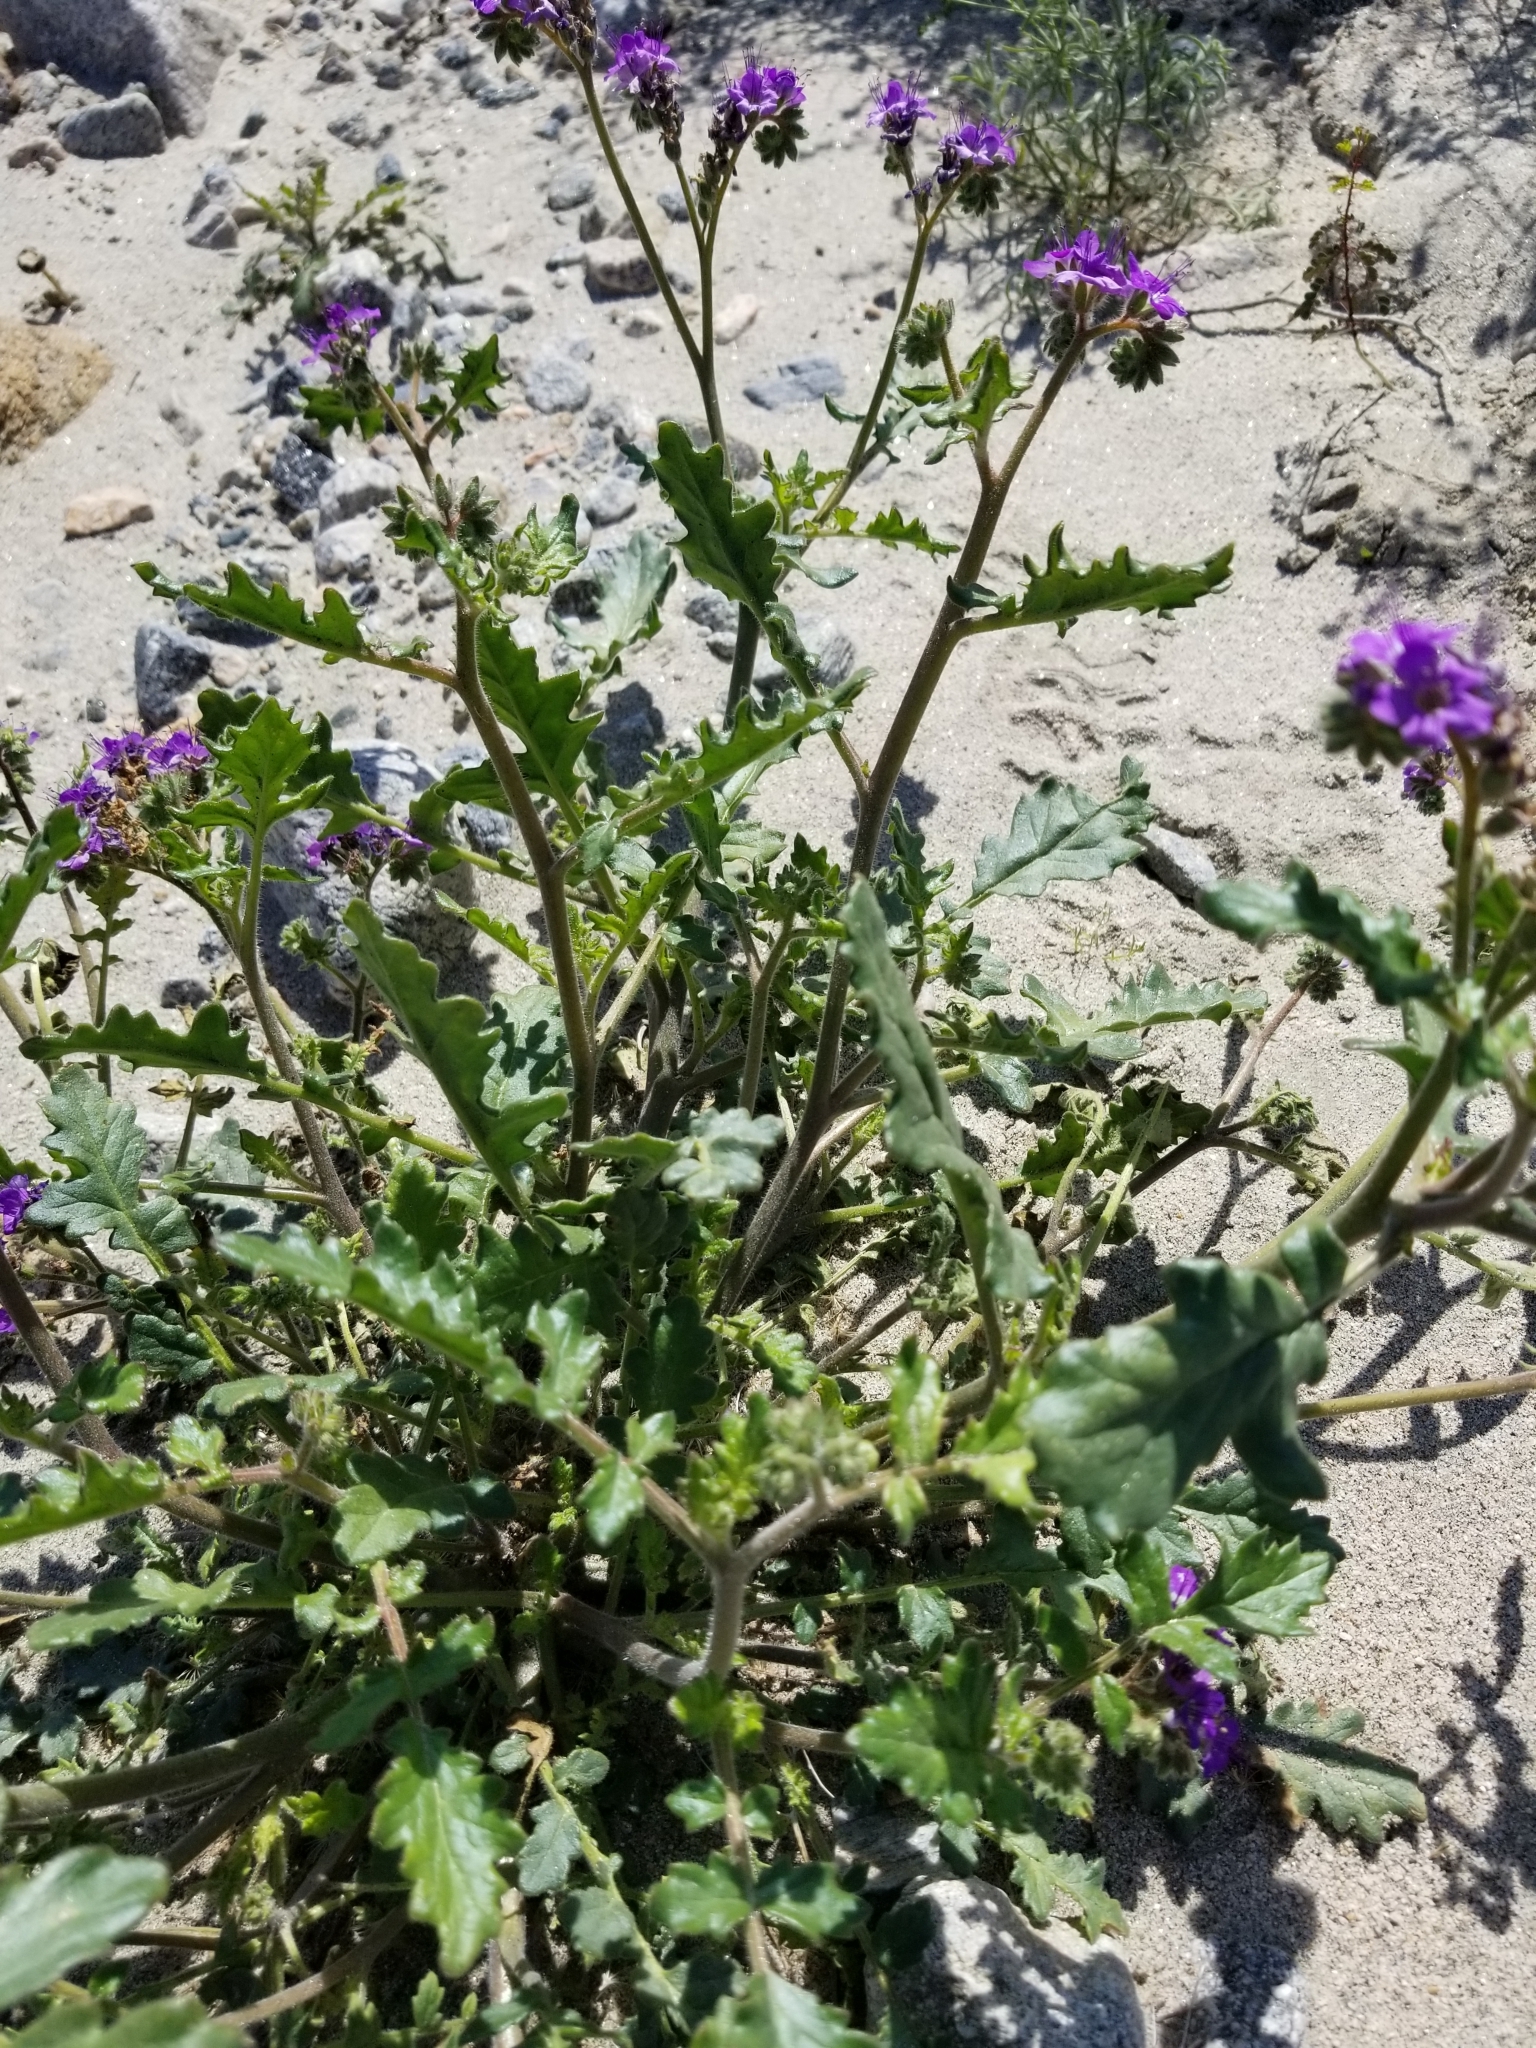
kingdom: Plantae
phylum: Tracheophyta
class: Magnoliopsida
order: Boraginales
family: Hydrophyllaceae
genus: Phacelia
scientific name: Phacelia crenulata
